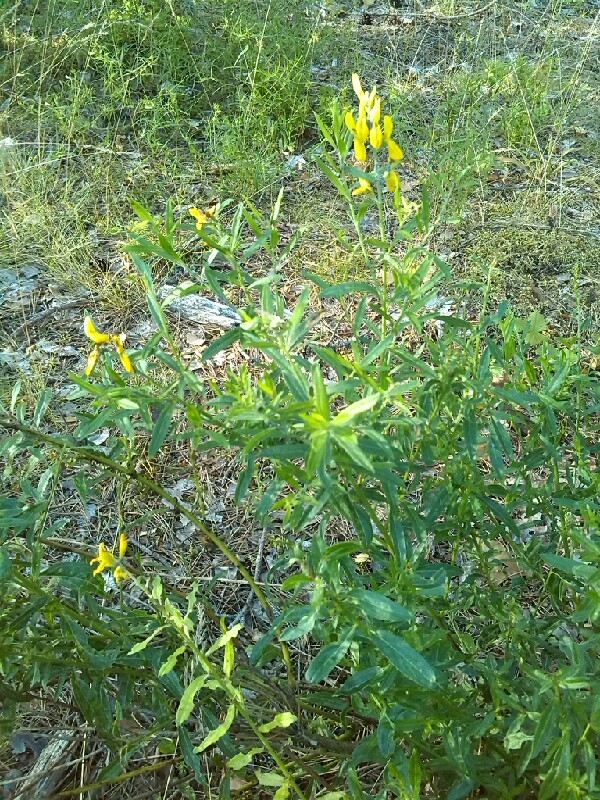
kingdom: Plantae
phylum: Tracheophyta
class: Magnoliopsida
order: Fabales
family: Fabaceae
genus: Genista
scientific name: Genista tinctoria
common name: Dyer's greenweed
